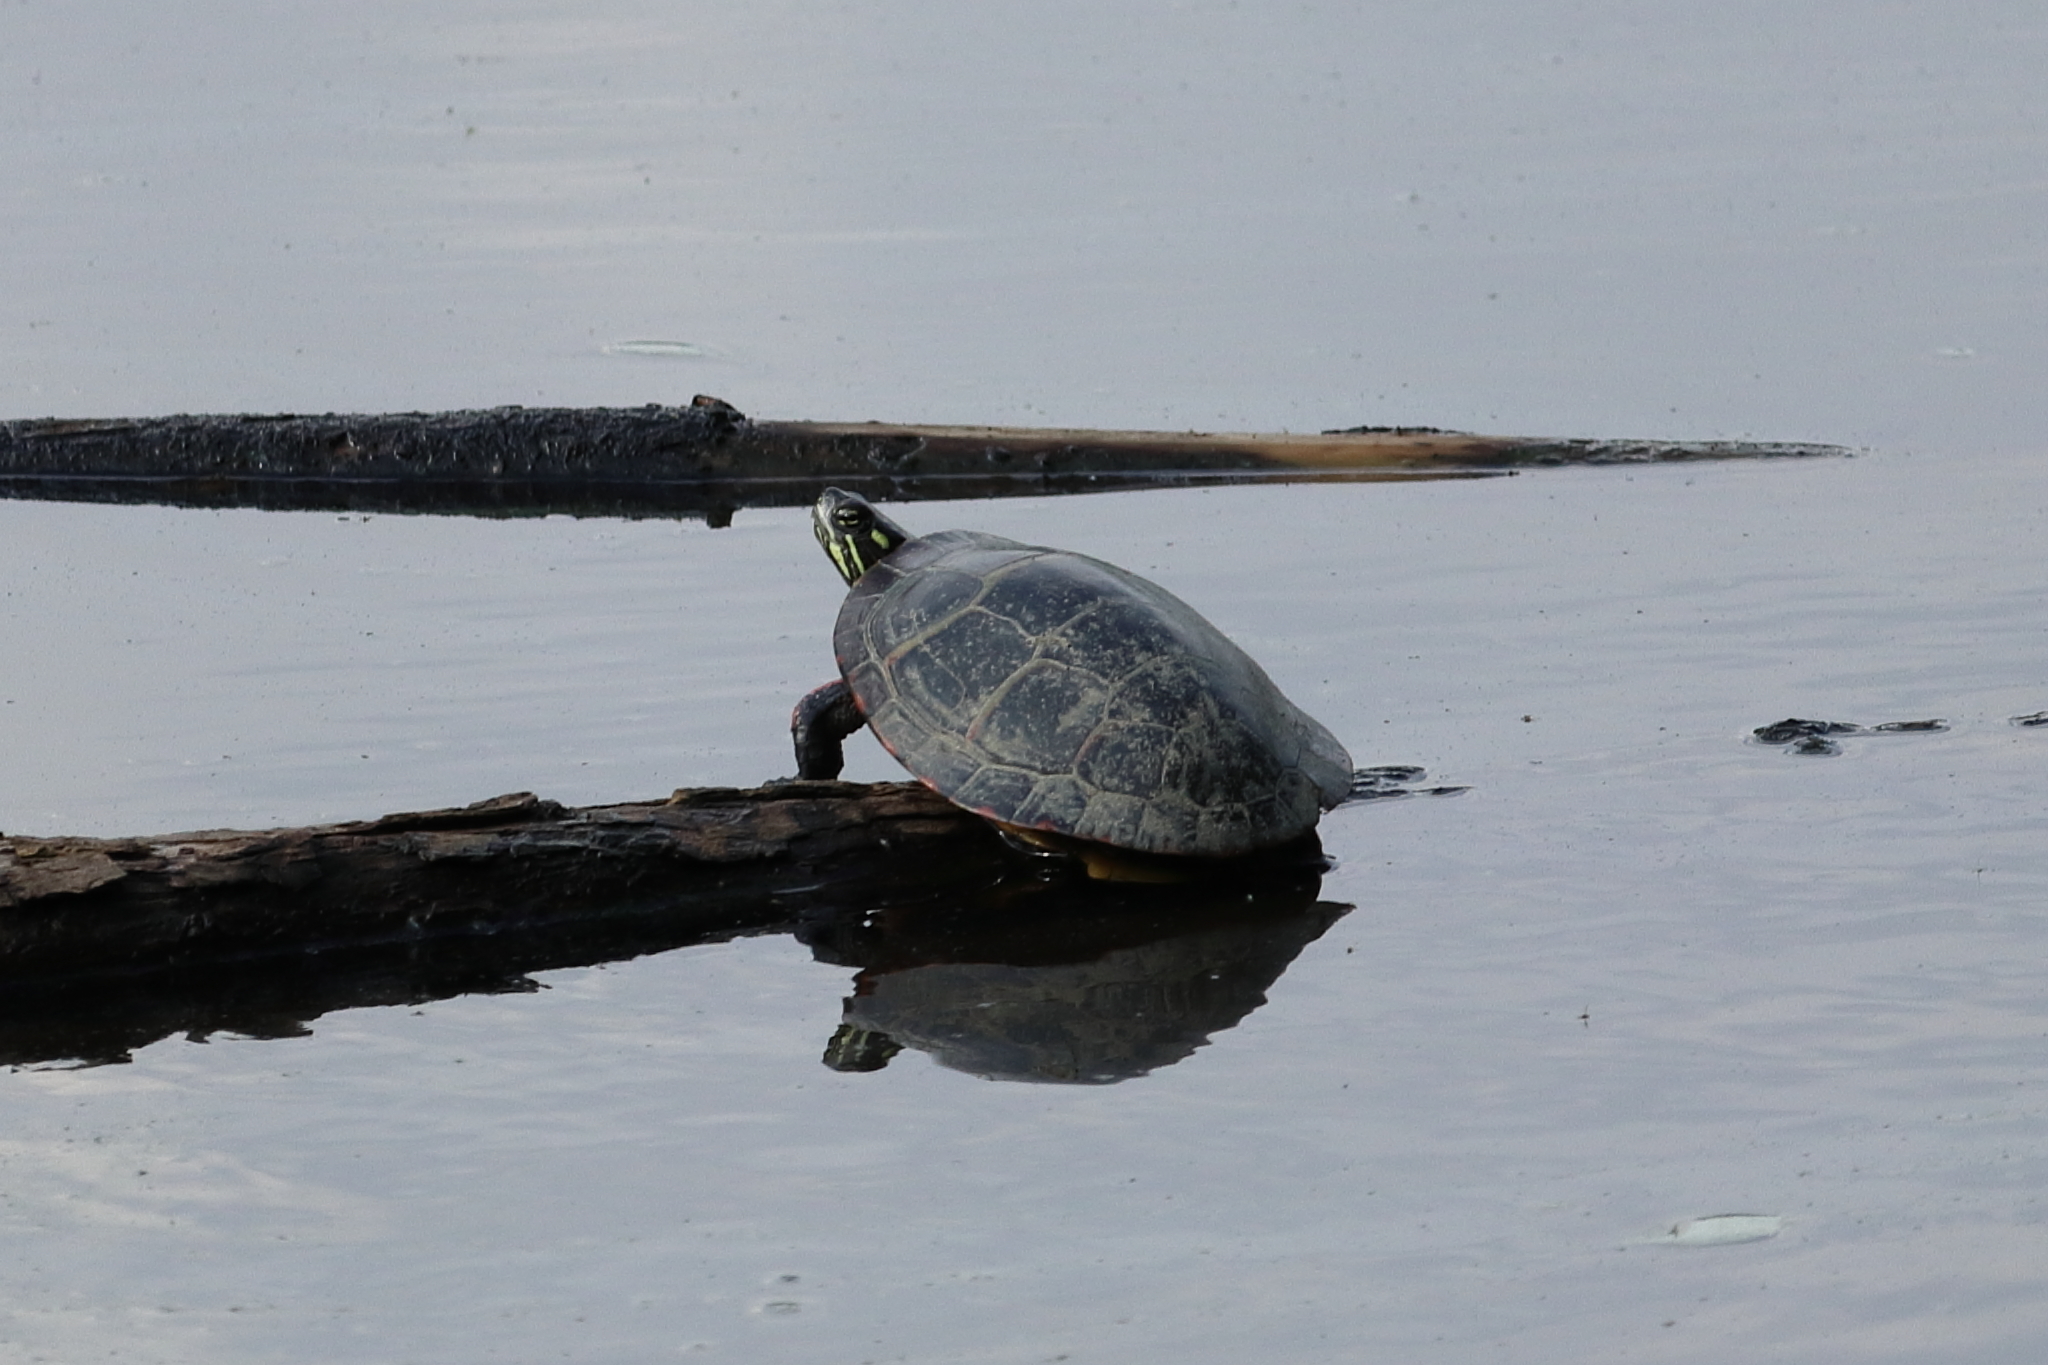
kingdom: Animalia
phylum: Chordata
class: Testudines
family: Emydidae
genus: Chrysemys
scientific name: Chrysemys picta
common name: Painted turtle
